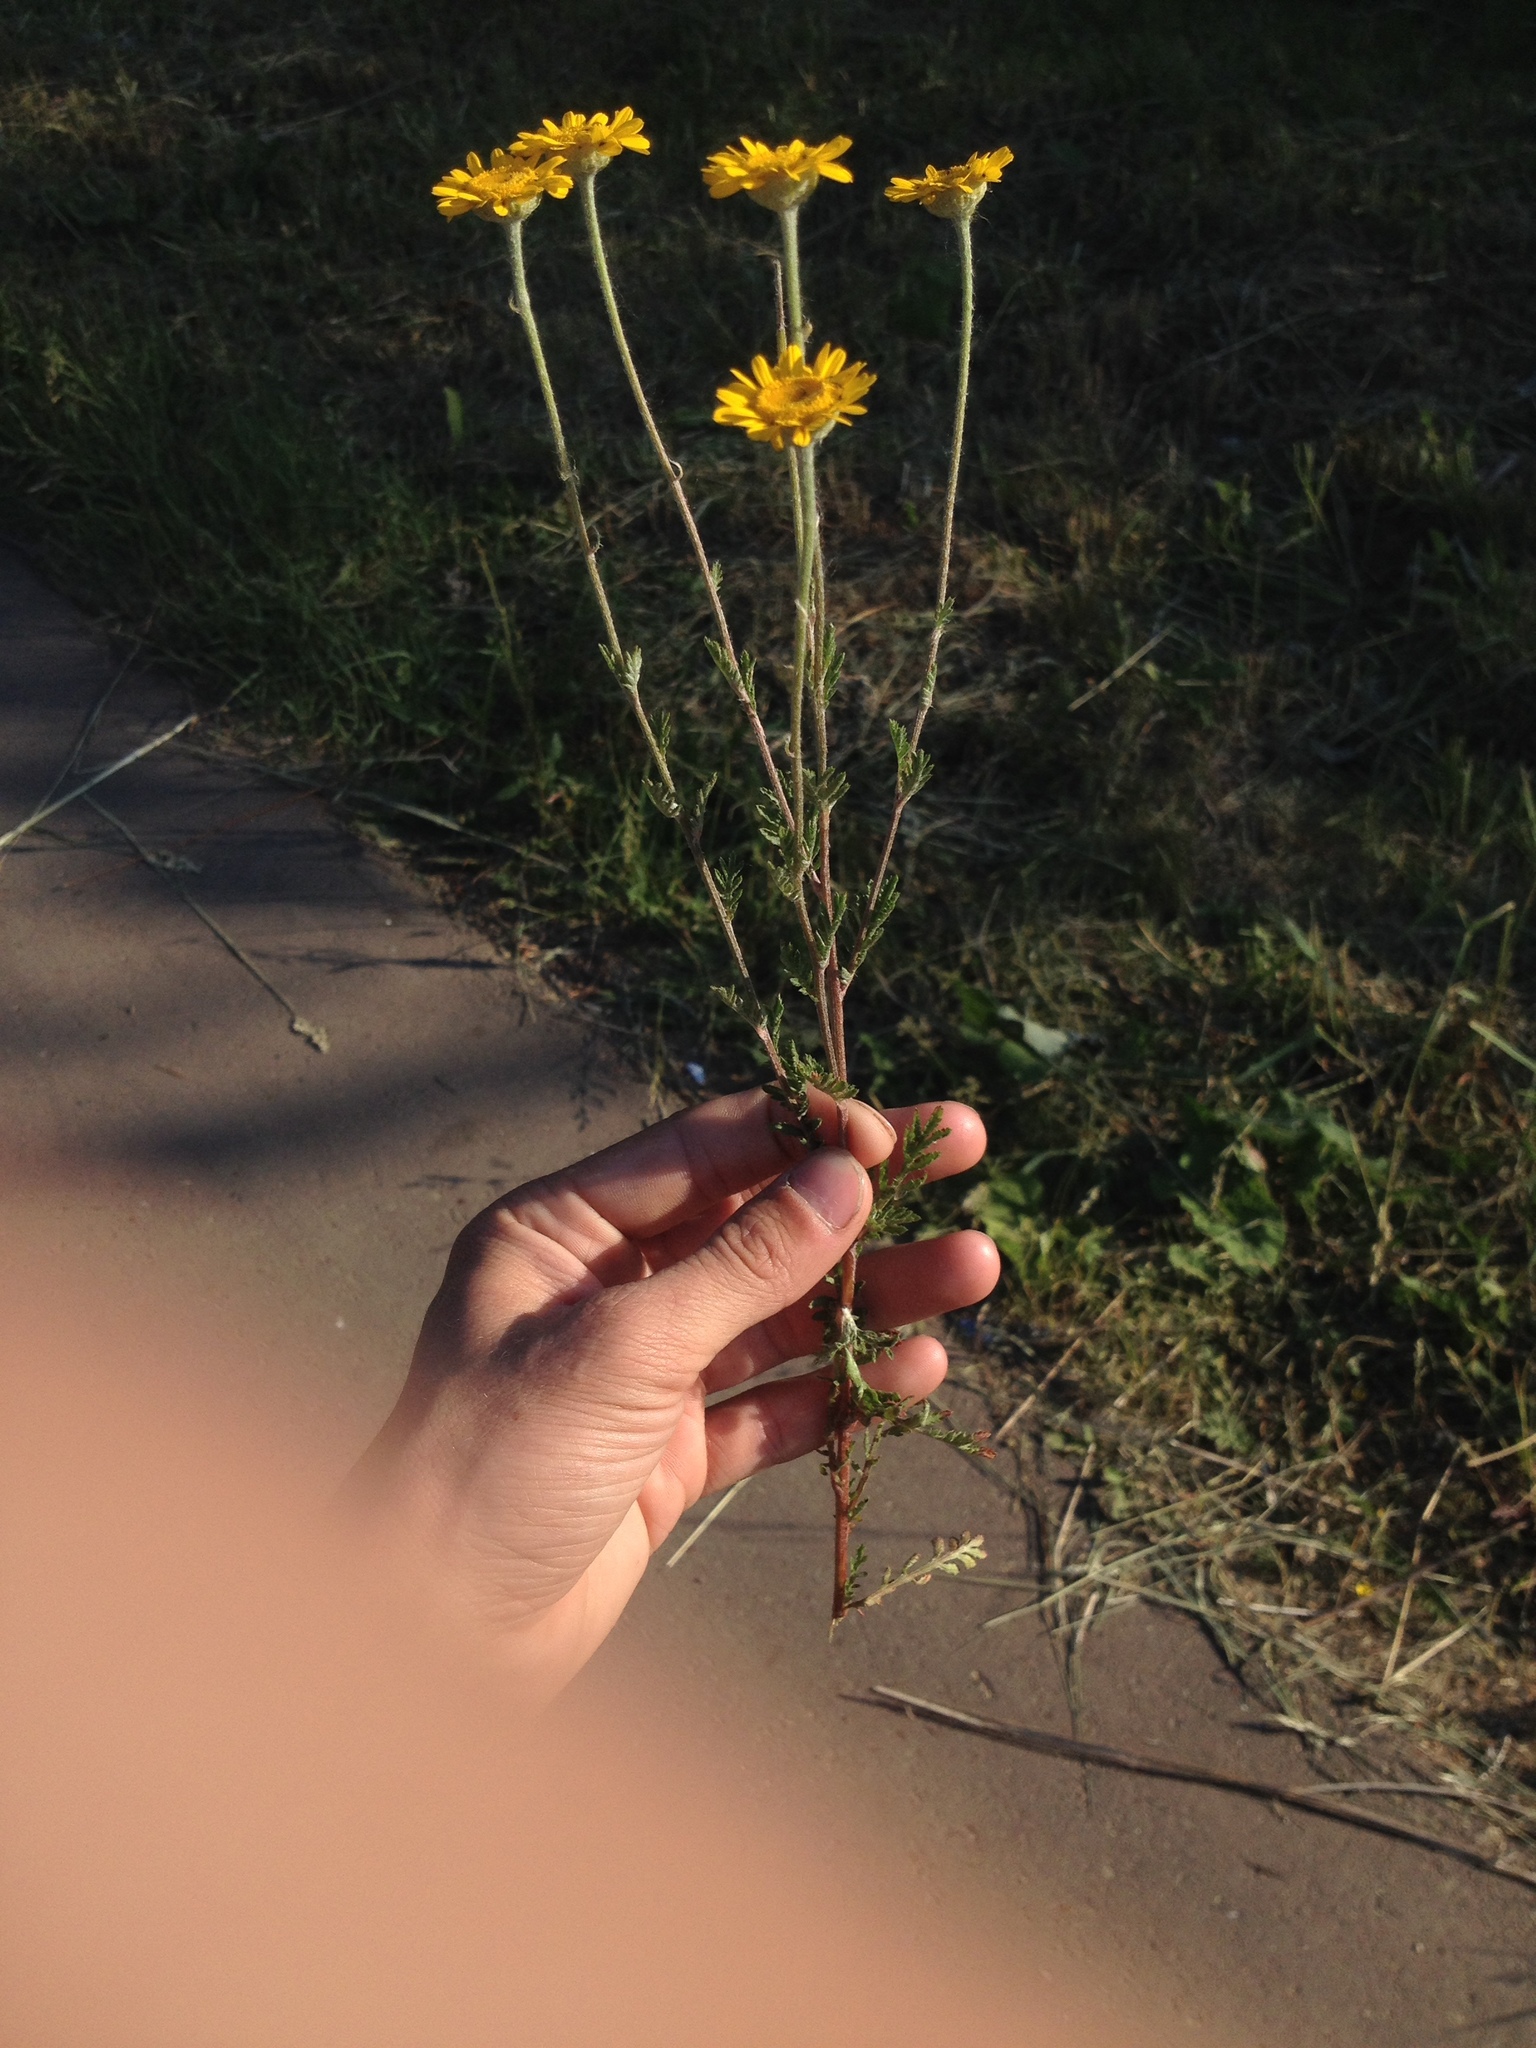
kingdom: Plantae
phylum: Tracheophyta
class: Magnoliopsida
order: Asterales
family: Asteraceae
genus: Cota
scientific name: Cota tinctoria
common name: Golden chamomile
